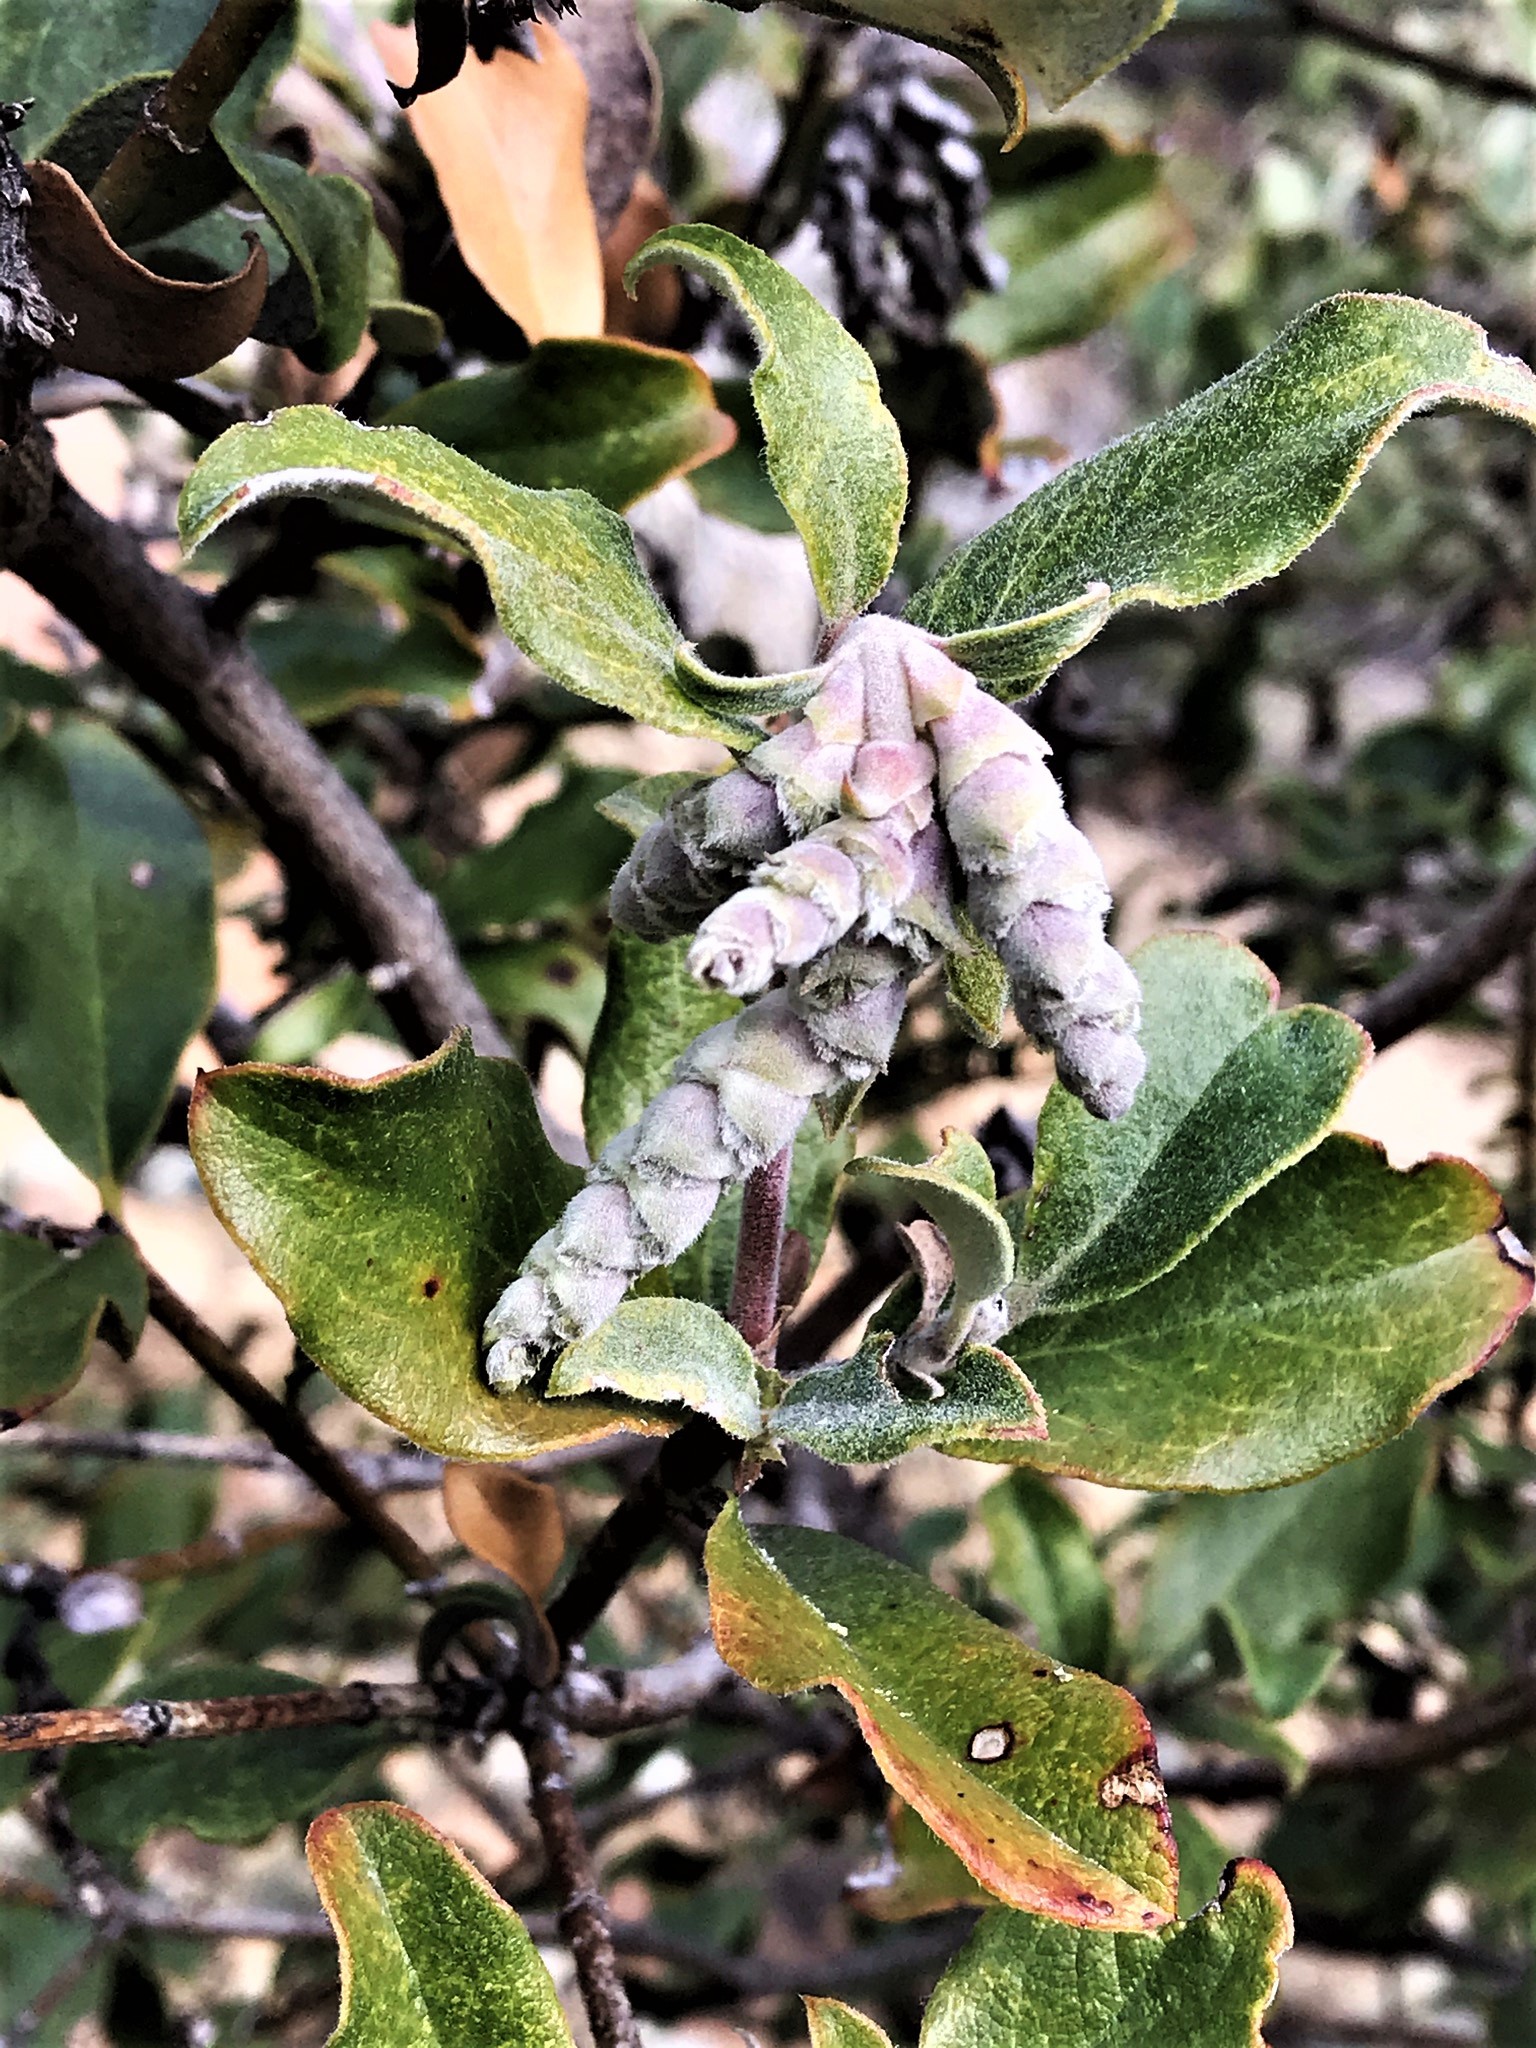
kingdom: Plantae
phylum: Tracheophyta
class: Magnoliopsida
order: Garryales
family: Garryaceae
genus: Garrya
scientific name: Garrya elliptica
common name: Silk-tassel
